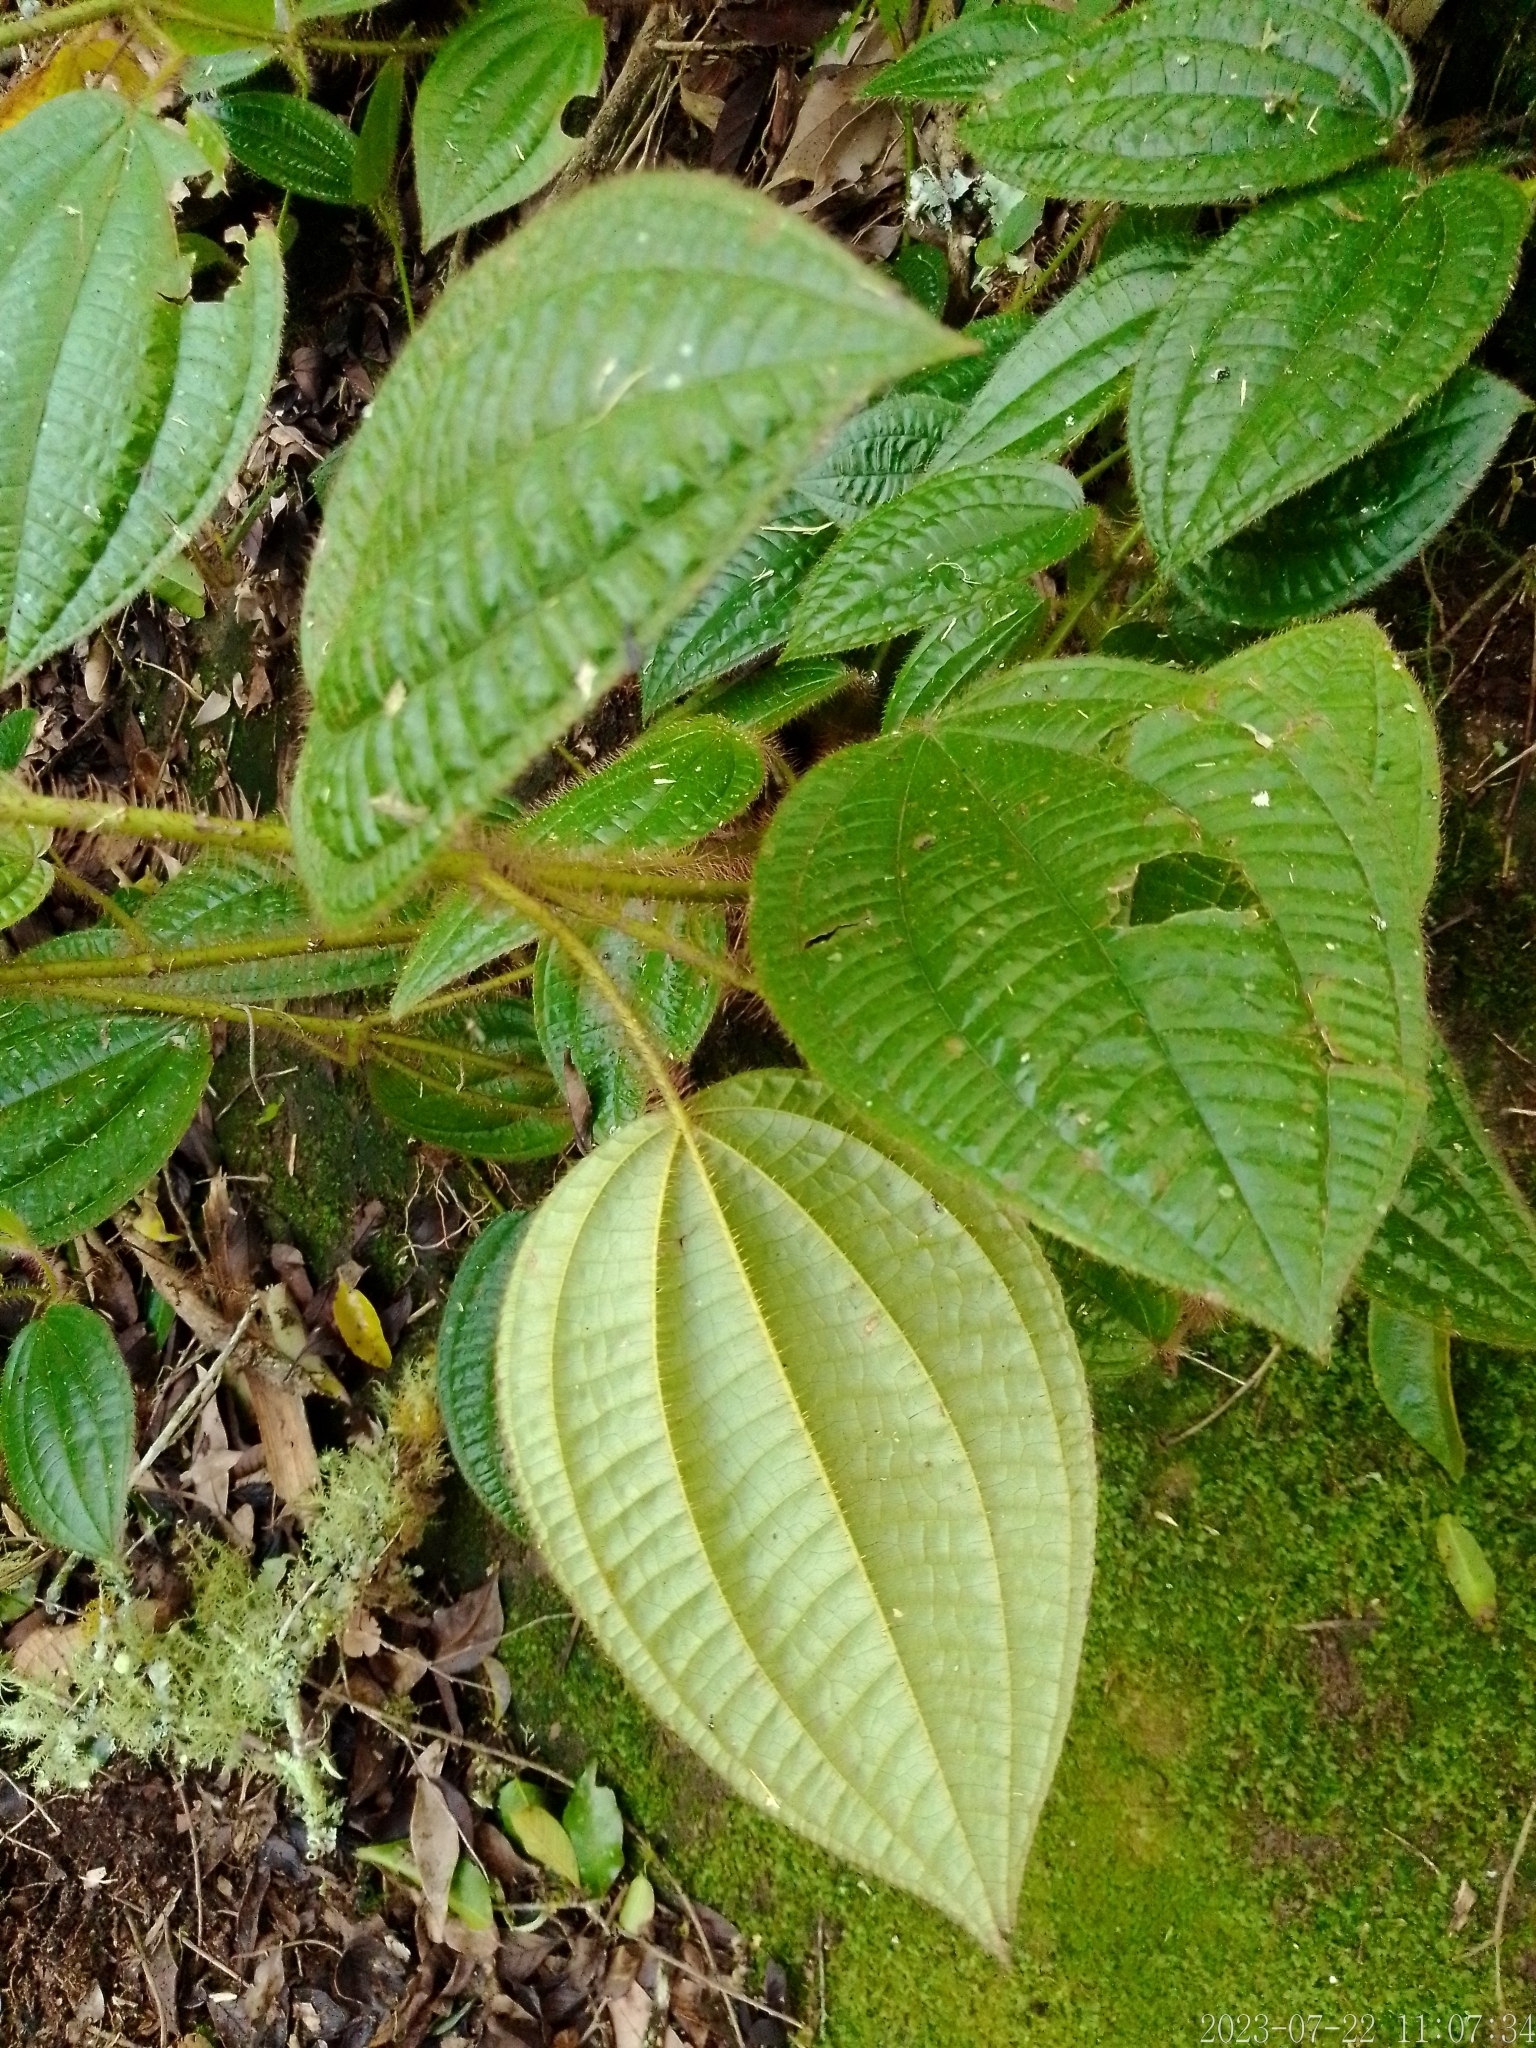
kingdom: Plantae
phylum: Tracheophyta
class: Magnoliopsida
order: Myrtales
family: Melastomataceae
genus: Miconia
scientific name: Miconia australis
